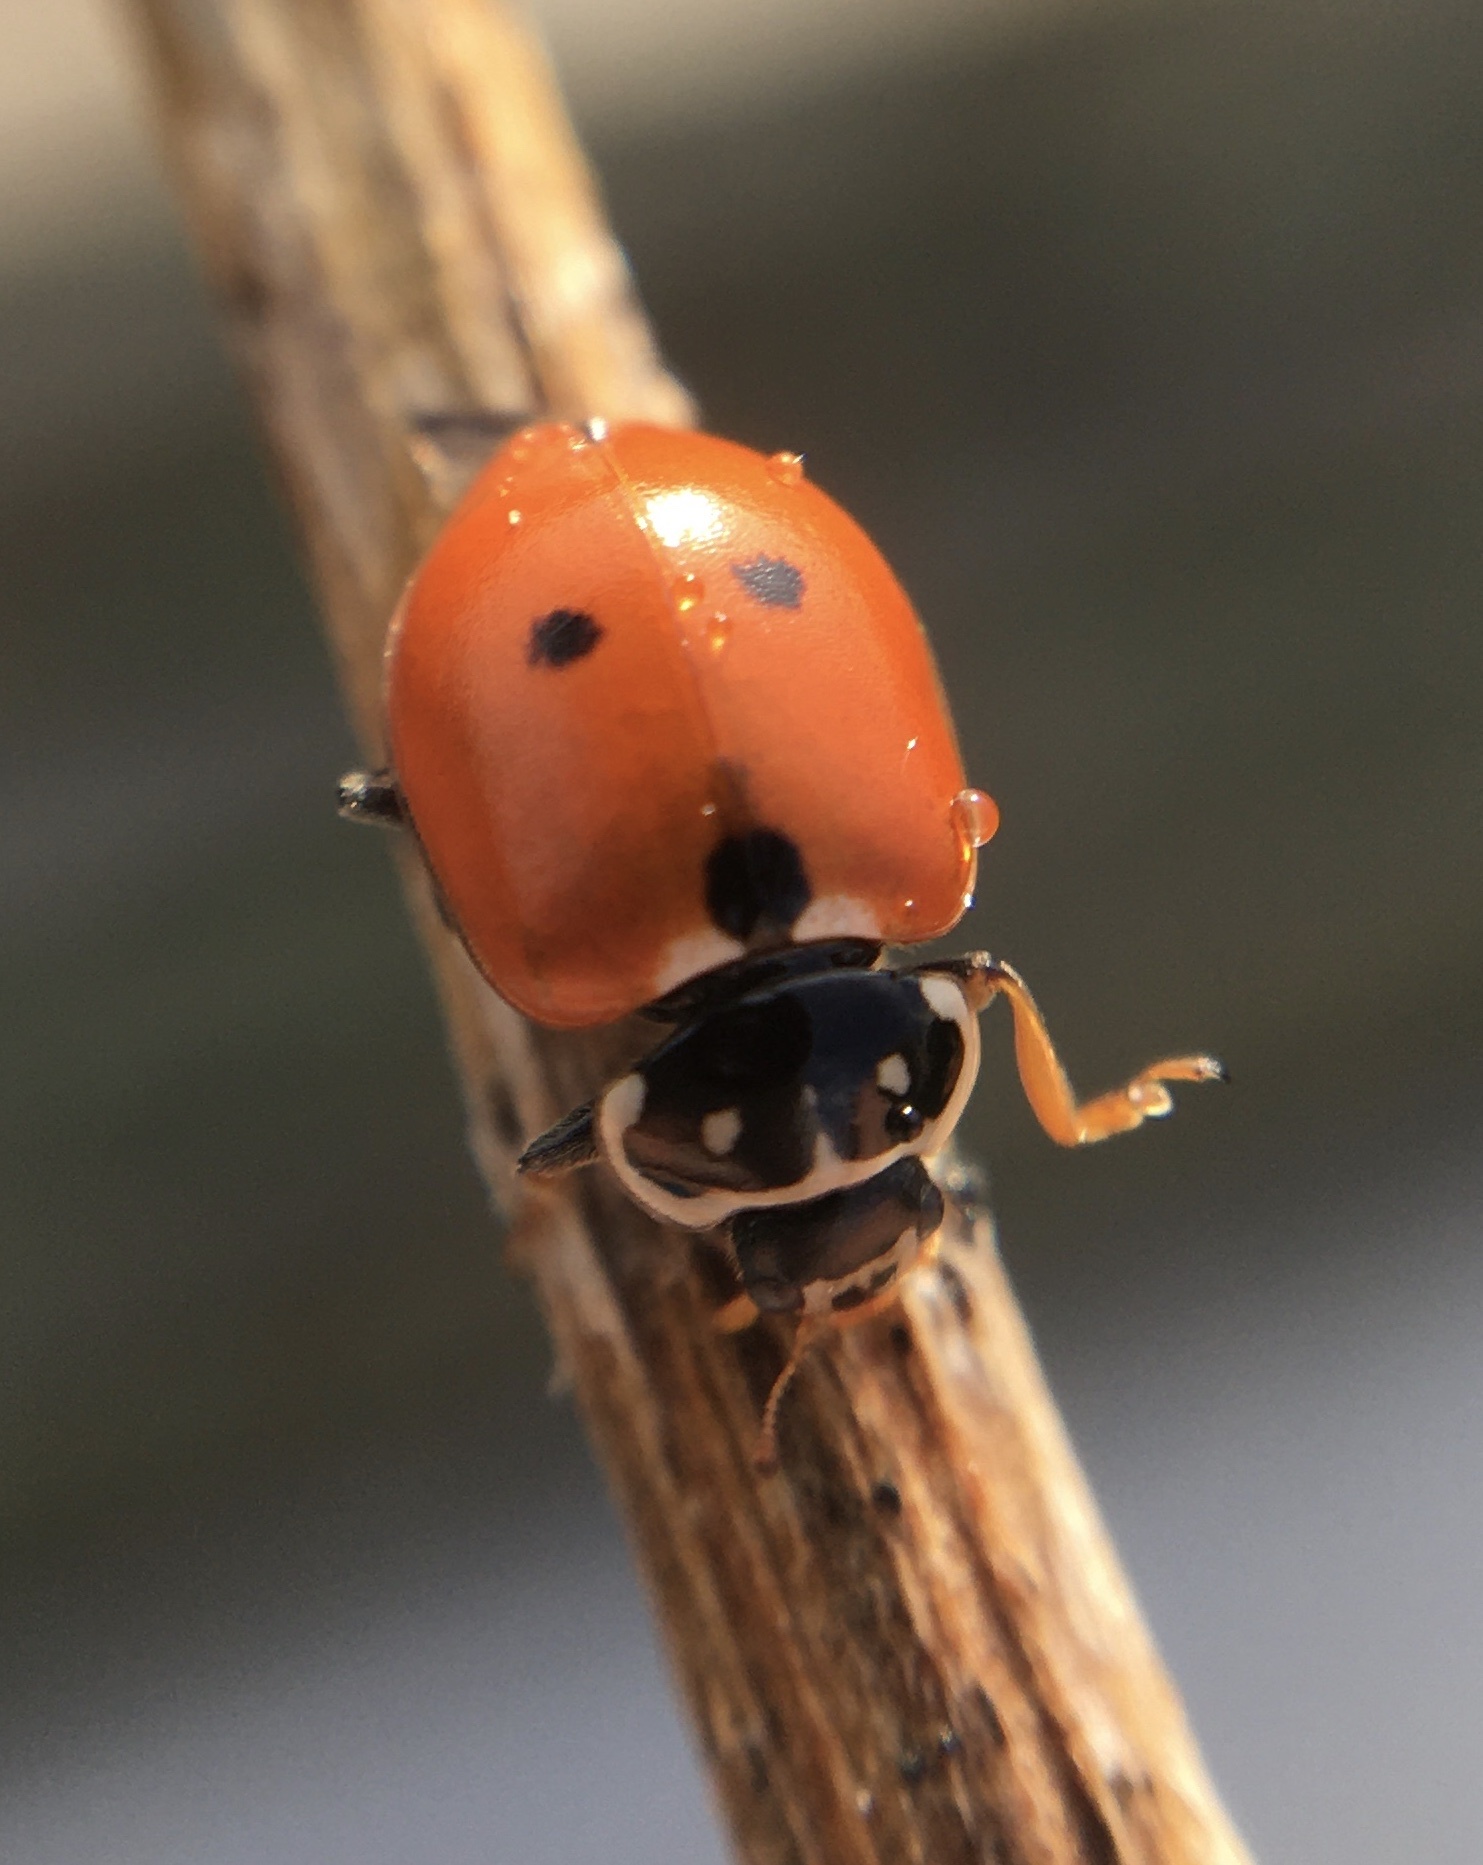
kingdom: Animalia
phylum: Arthropoda
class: Insecta
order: Coleoptera
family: Coccinellidae
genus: Hippodamia
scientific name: Hippodamia variegata
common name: Ladybird beetle
